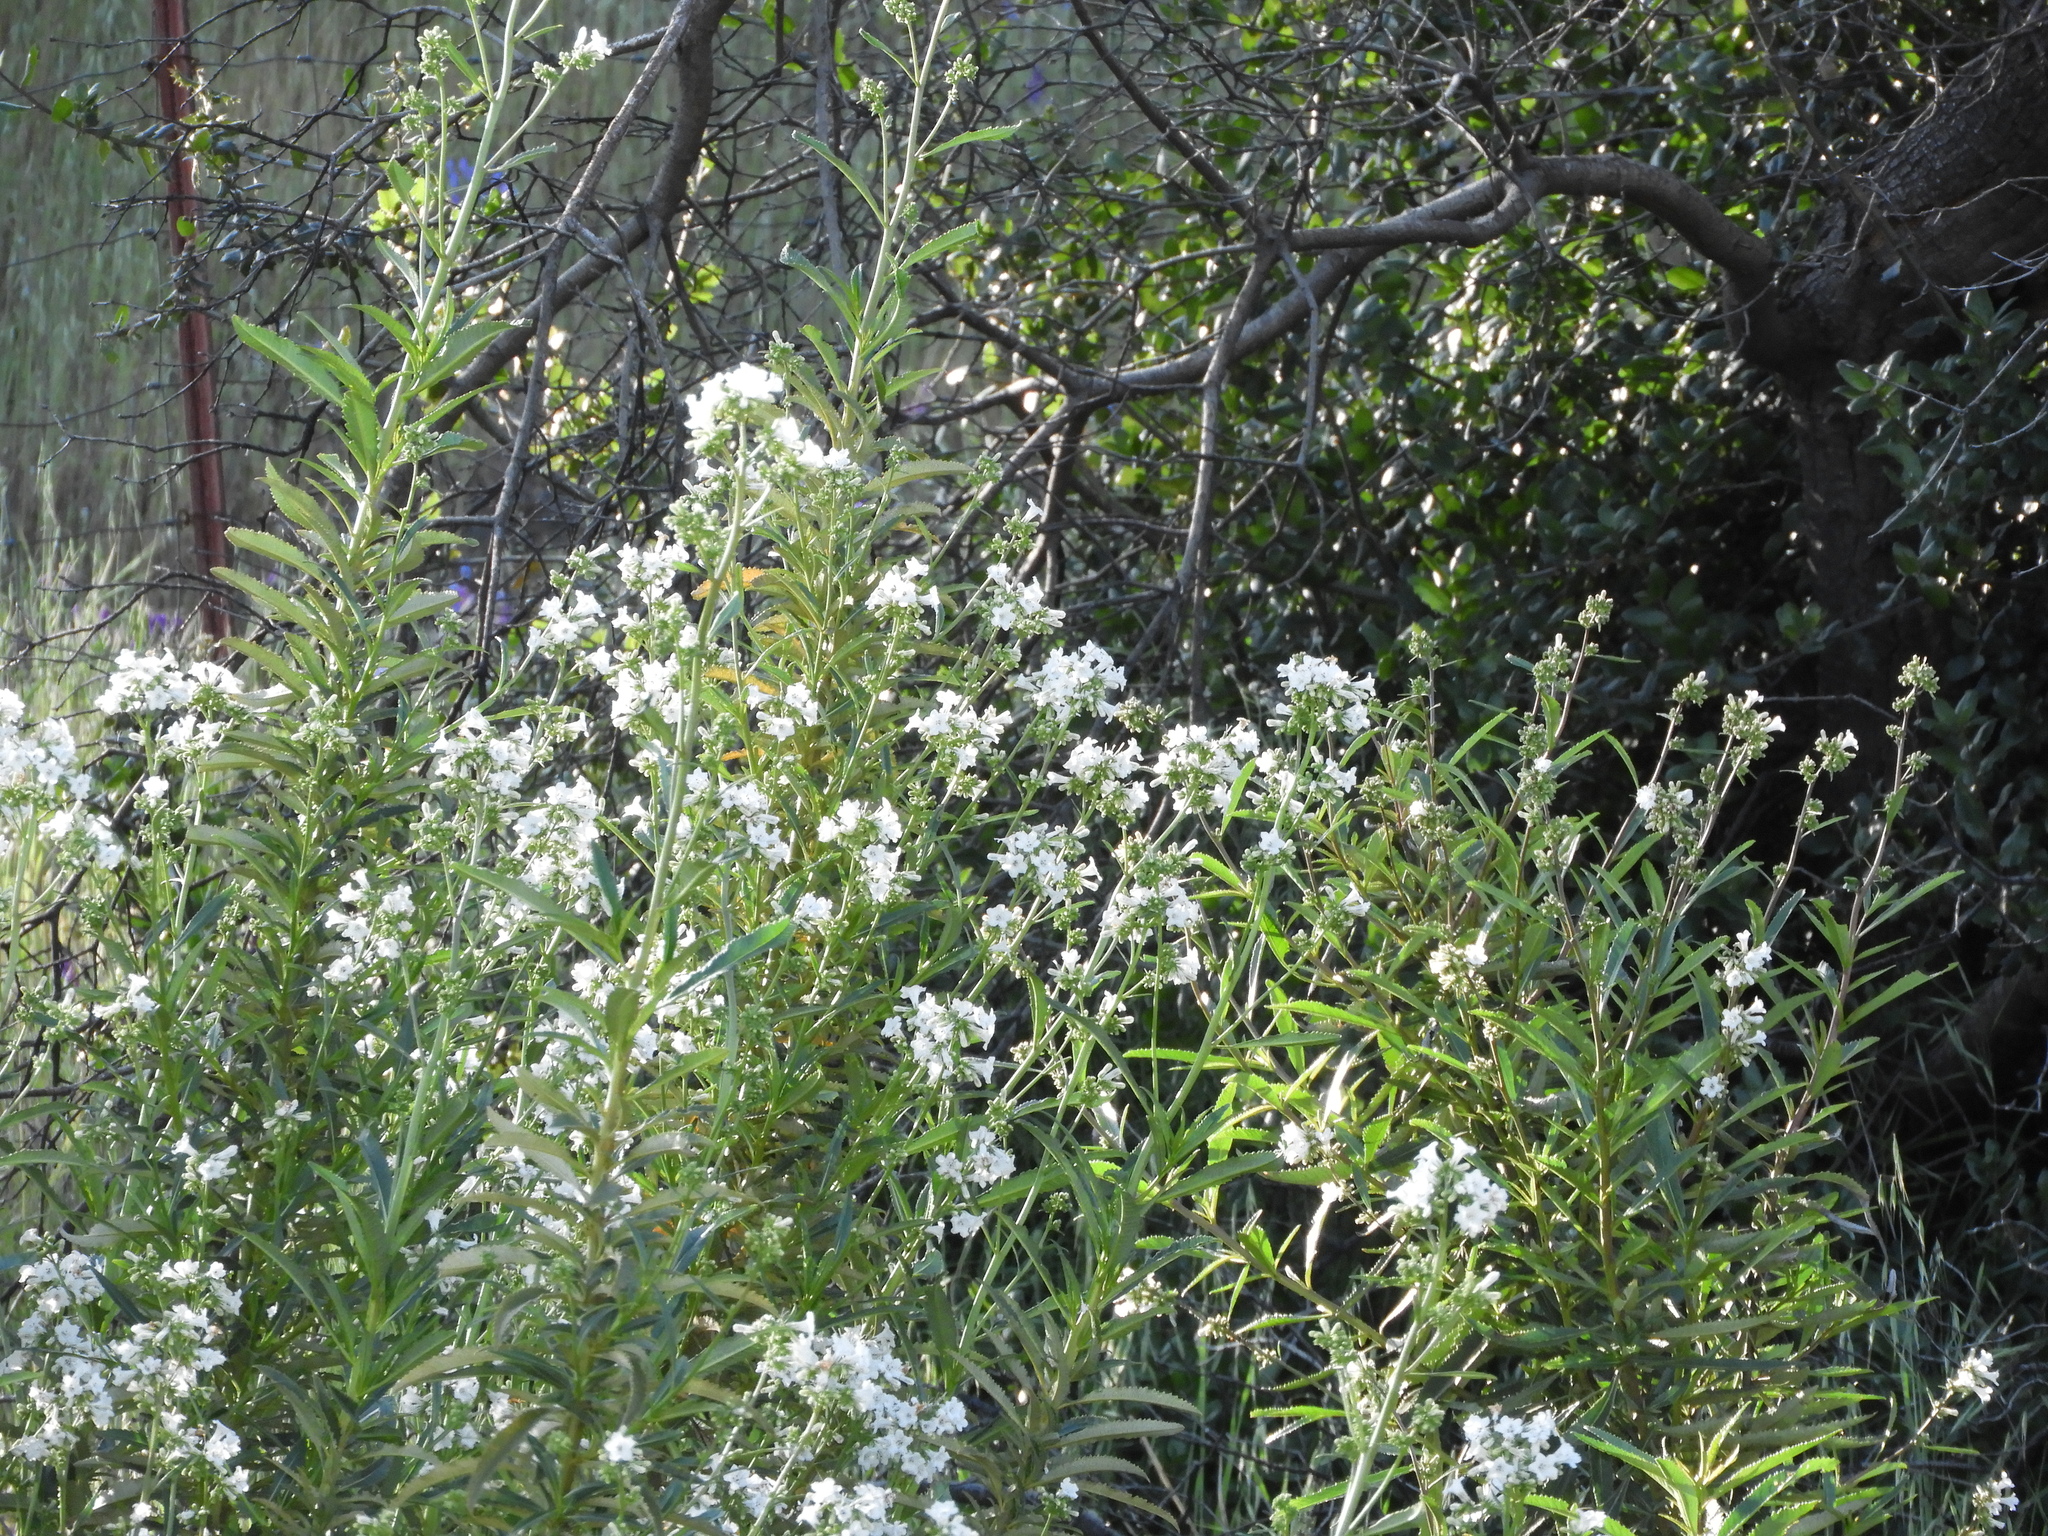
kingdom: Plantae
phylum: Tracheophyta
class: Magnoliopsida
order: Boraginales
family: Namaceae
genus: Eriodictyon
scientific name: Eriodictyon californicum
